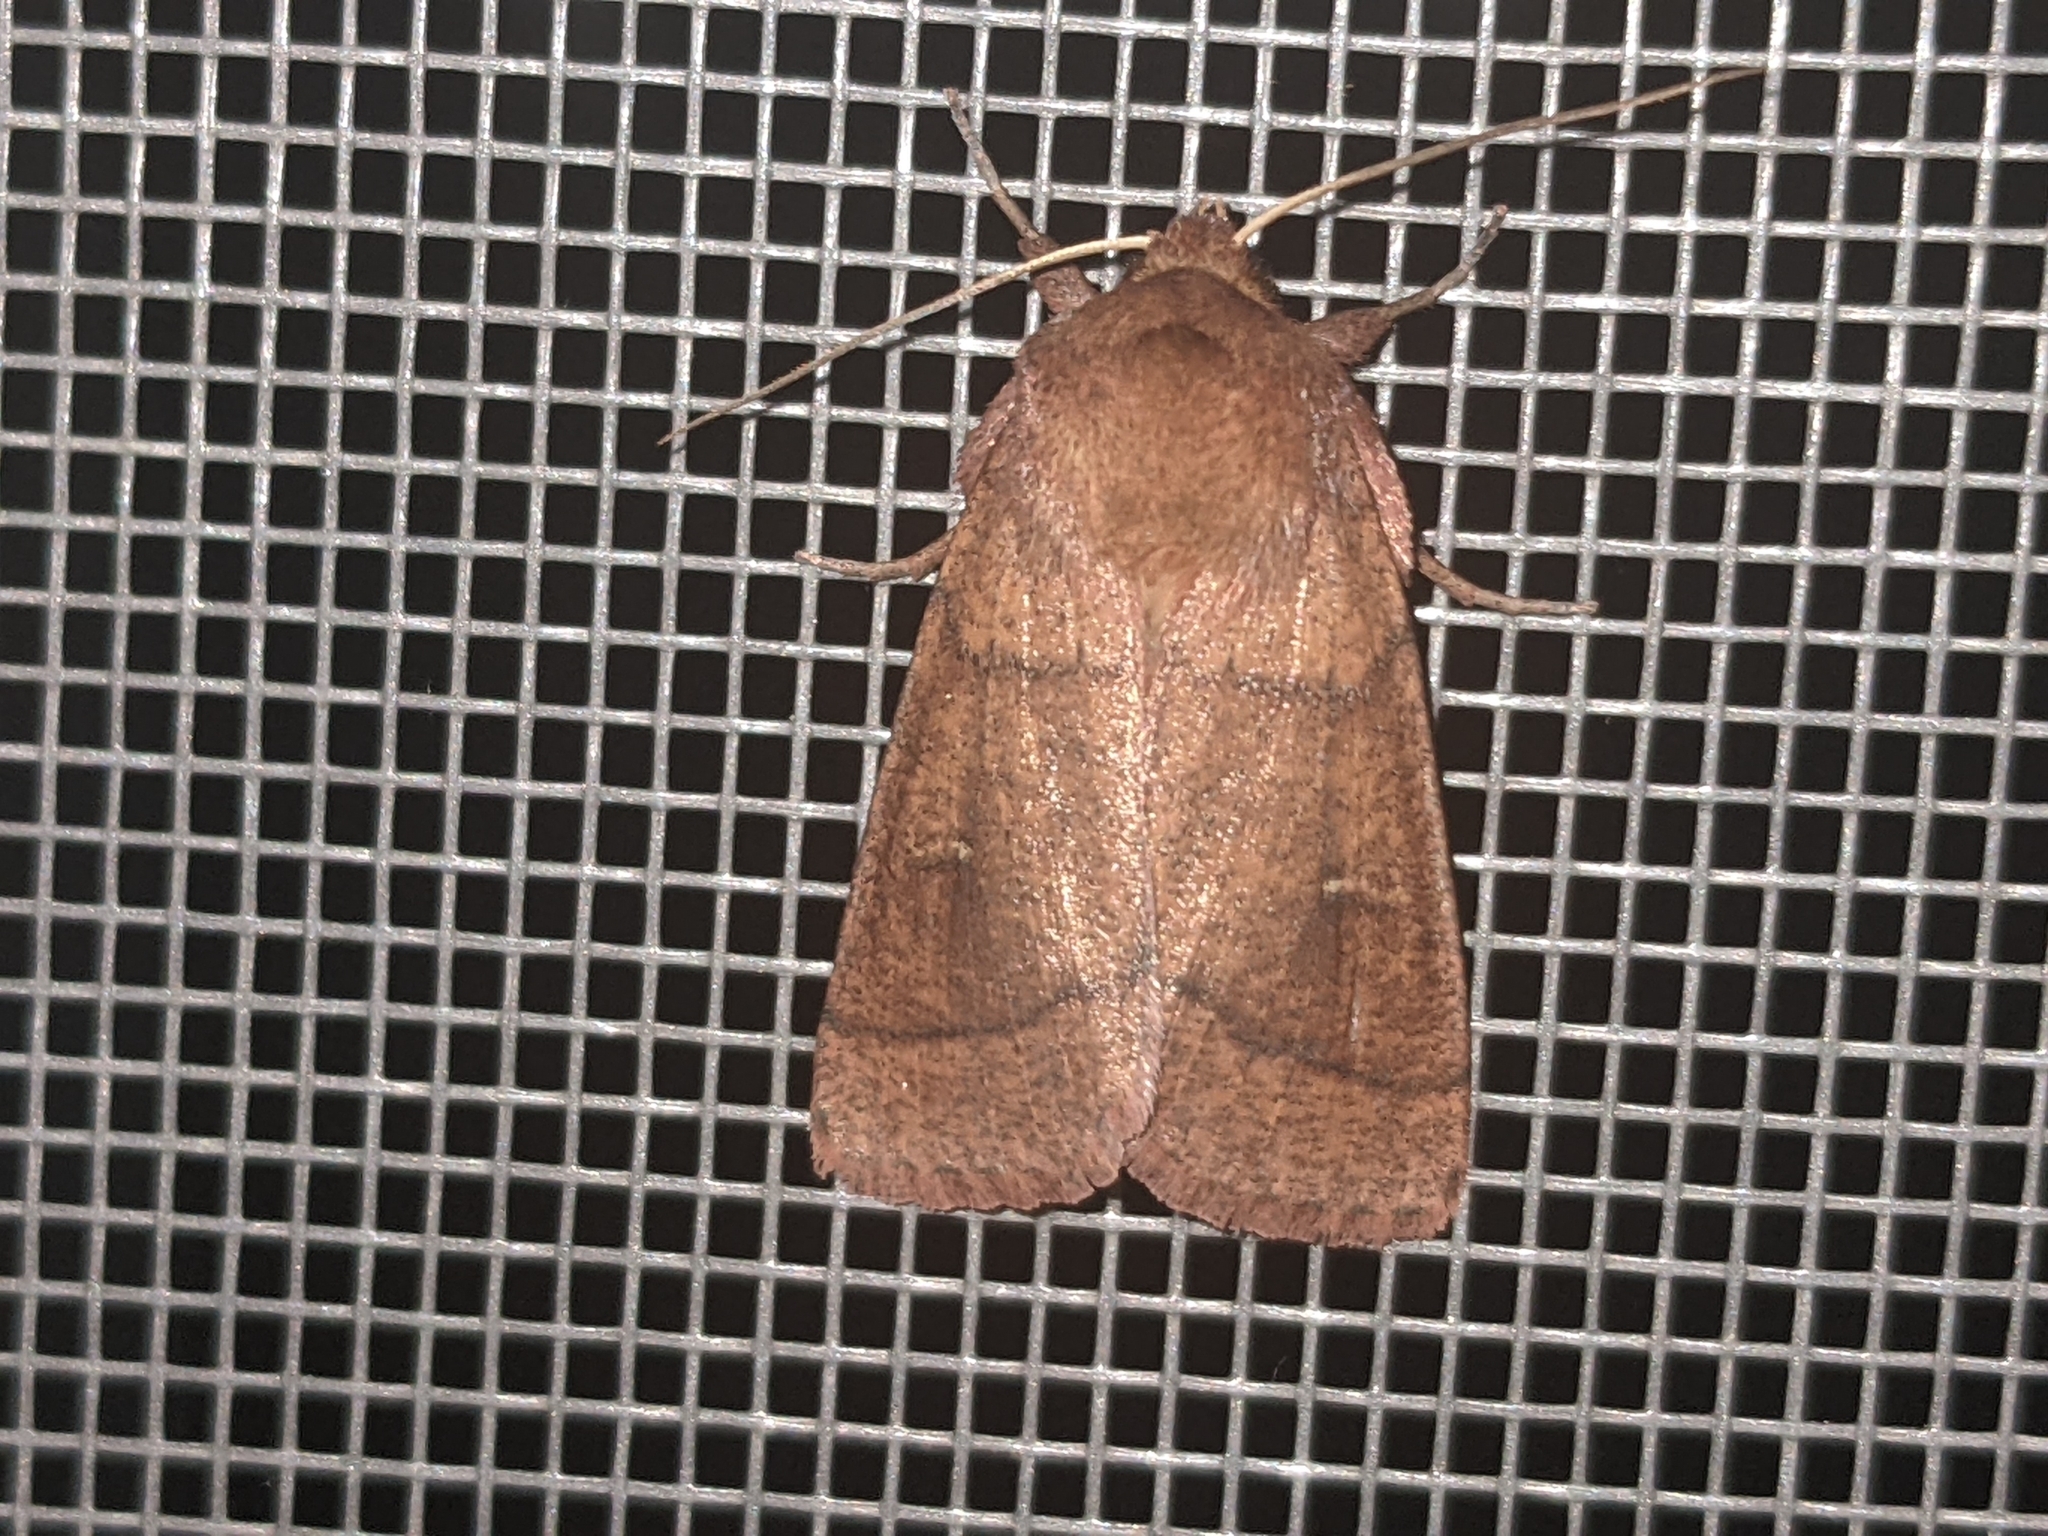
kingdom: Animalia
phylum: Arthropoda
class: Insecta
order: Lepidoptera
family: Noctuidae
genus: Mythimna
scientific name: Mythimna turca
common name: Double line
